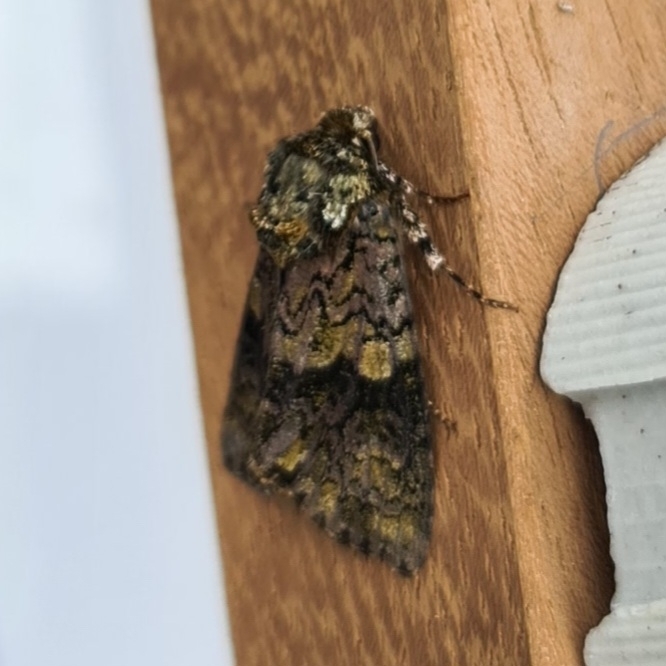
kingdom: Animalia
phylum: Arthropoda
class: Insecta
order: Lepidoptera
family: Noctuidae
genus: Craniophora
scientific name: Craniophora ligustri
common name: Coronet
